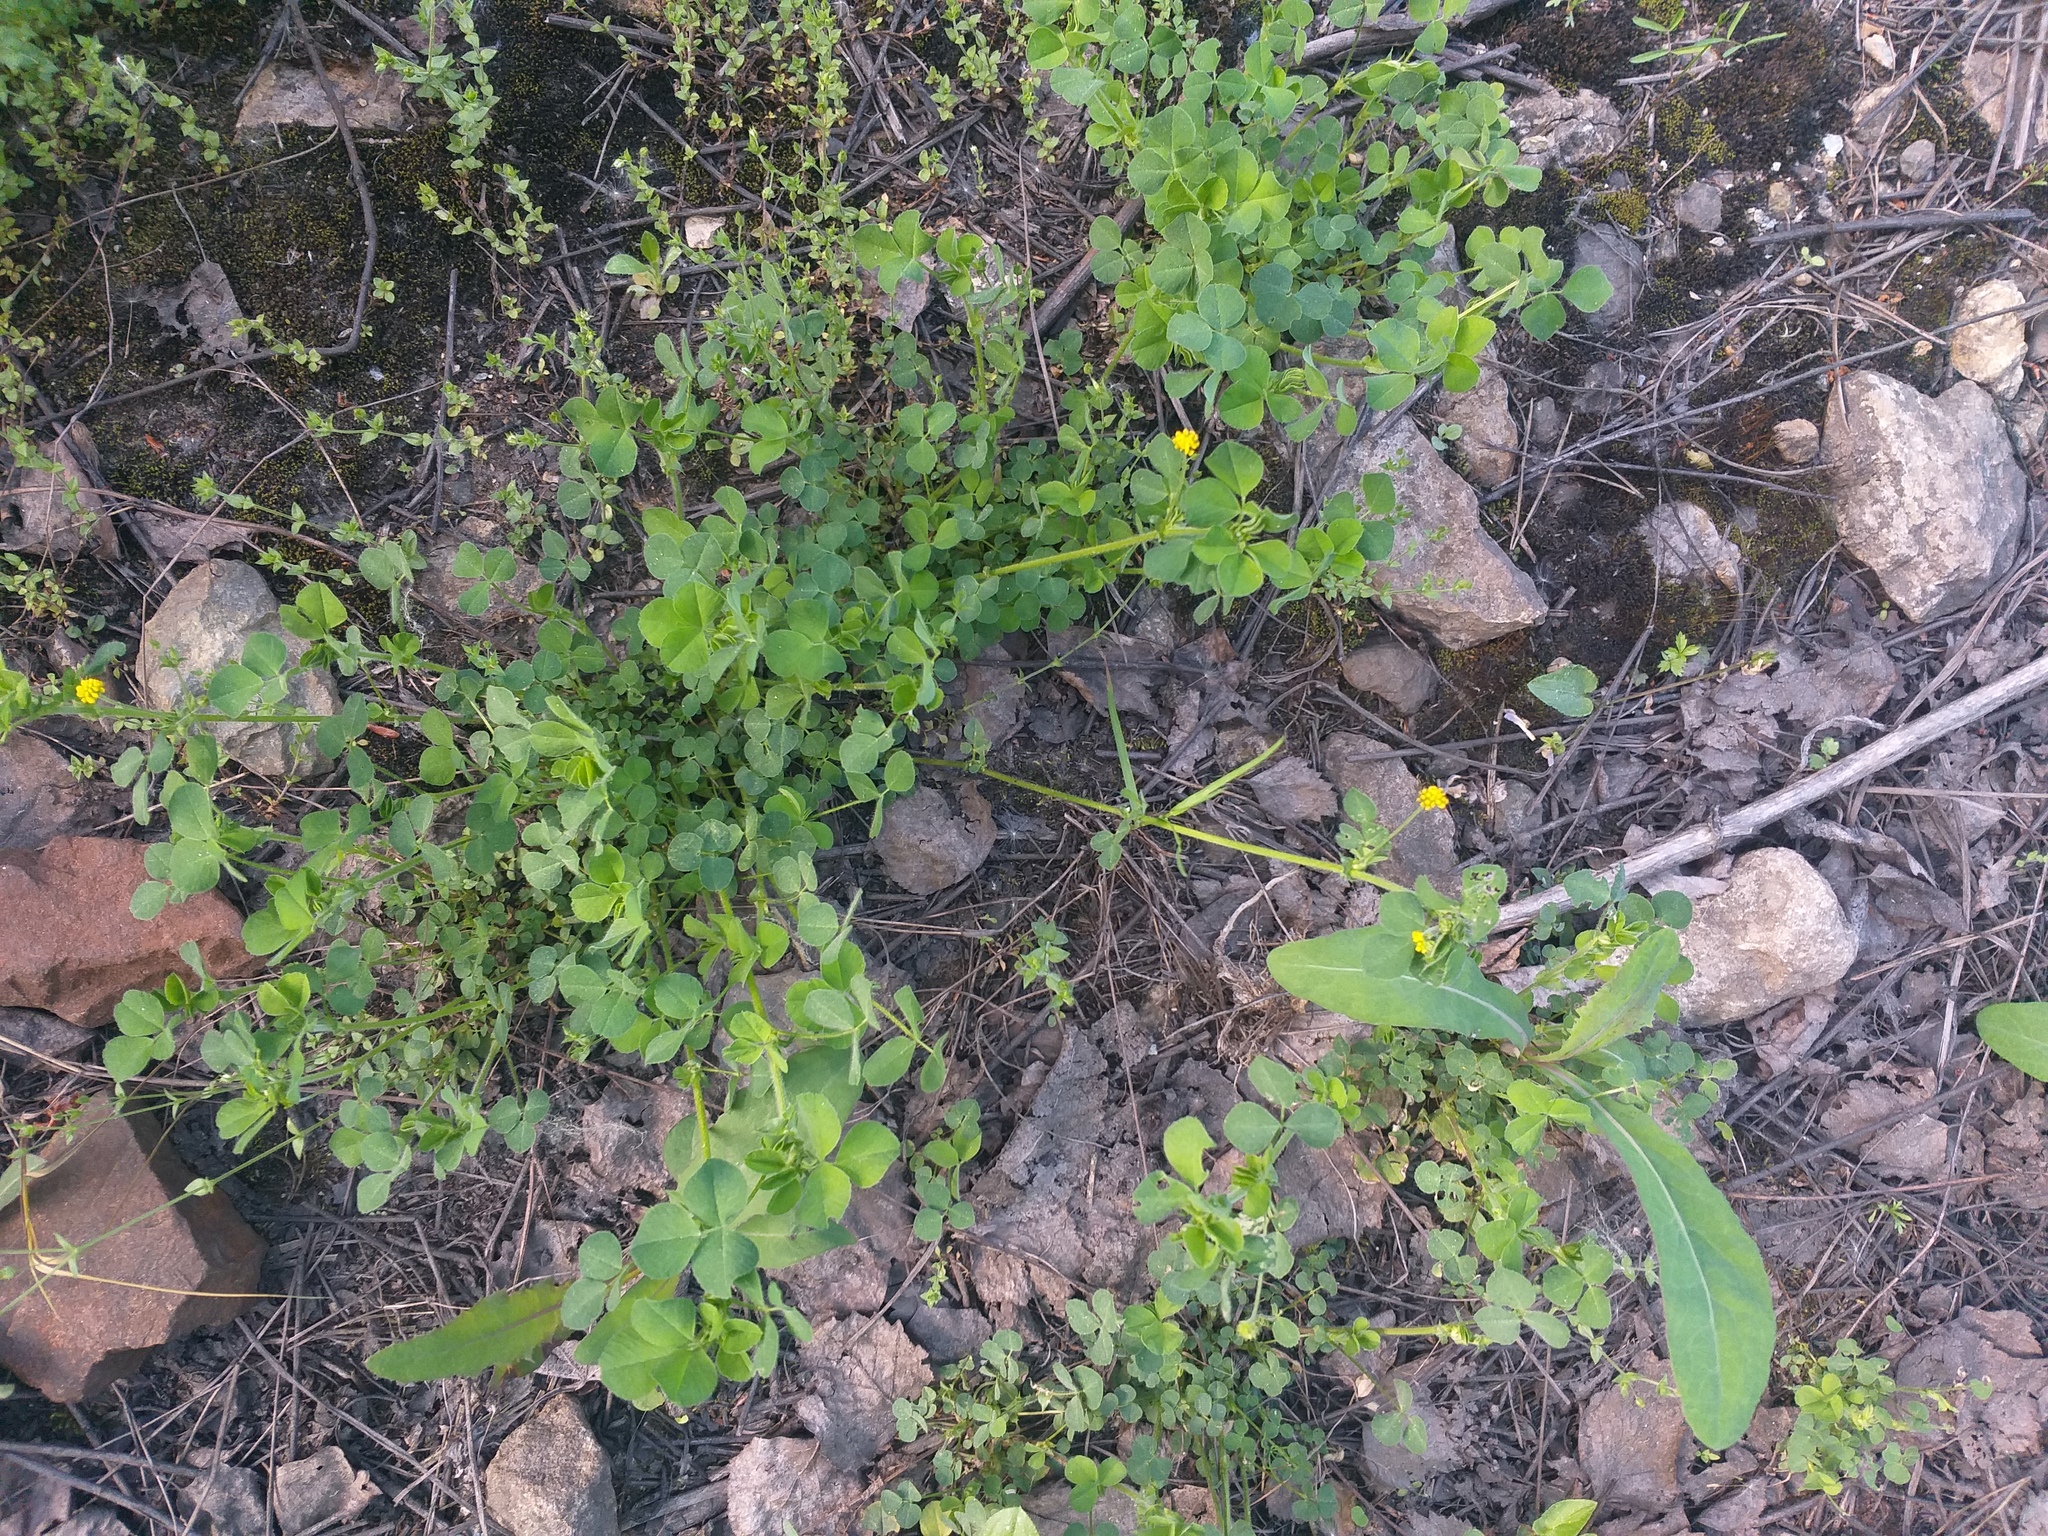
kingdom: Plantae
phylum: Tracheophyta
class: Magnoliopsida
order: Fabales
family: Fabaceae
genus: Medicago
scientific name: Medicago lupulina
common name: Black medick
